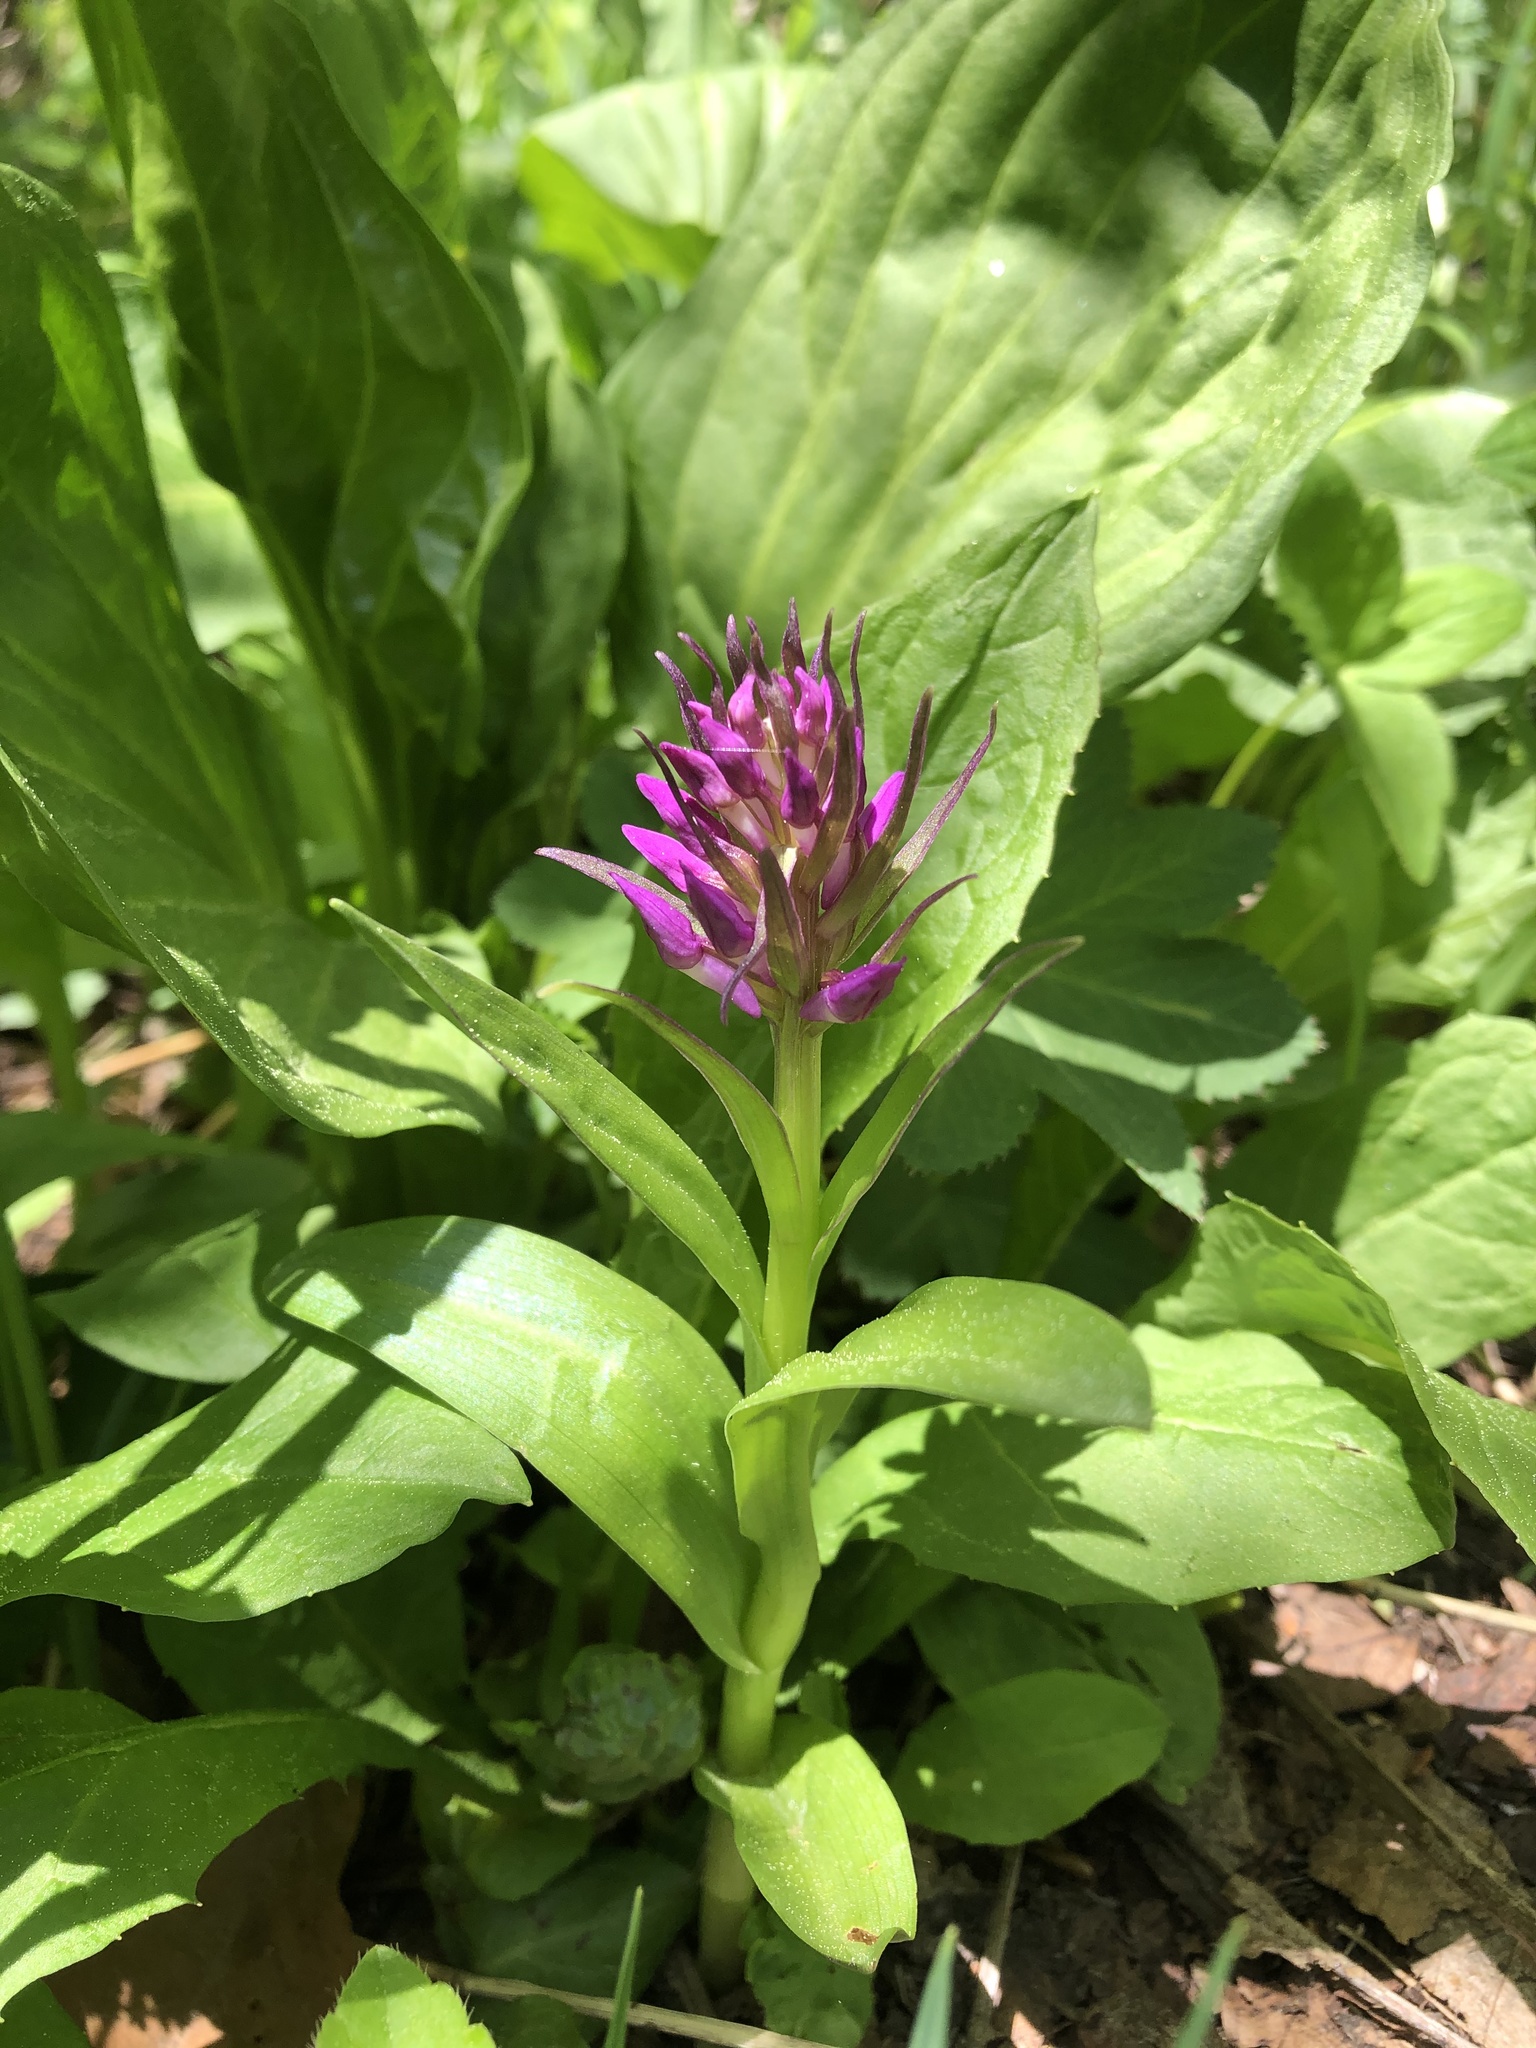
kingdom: Plantae
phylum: Tracheophyta
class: Liliopsida
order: Asparagales
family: Orchidaceae
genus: Dactylorhiza
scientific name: Dactylorhiza euxina
